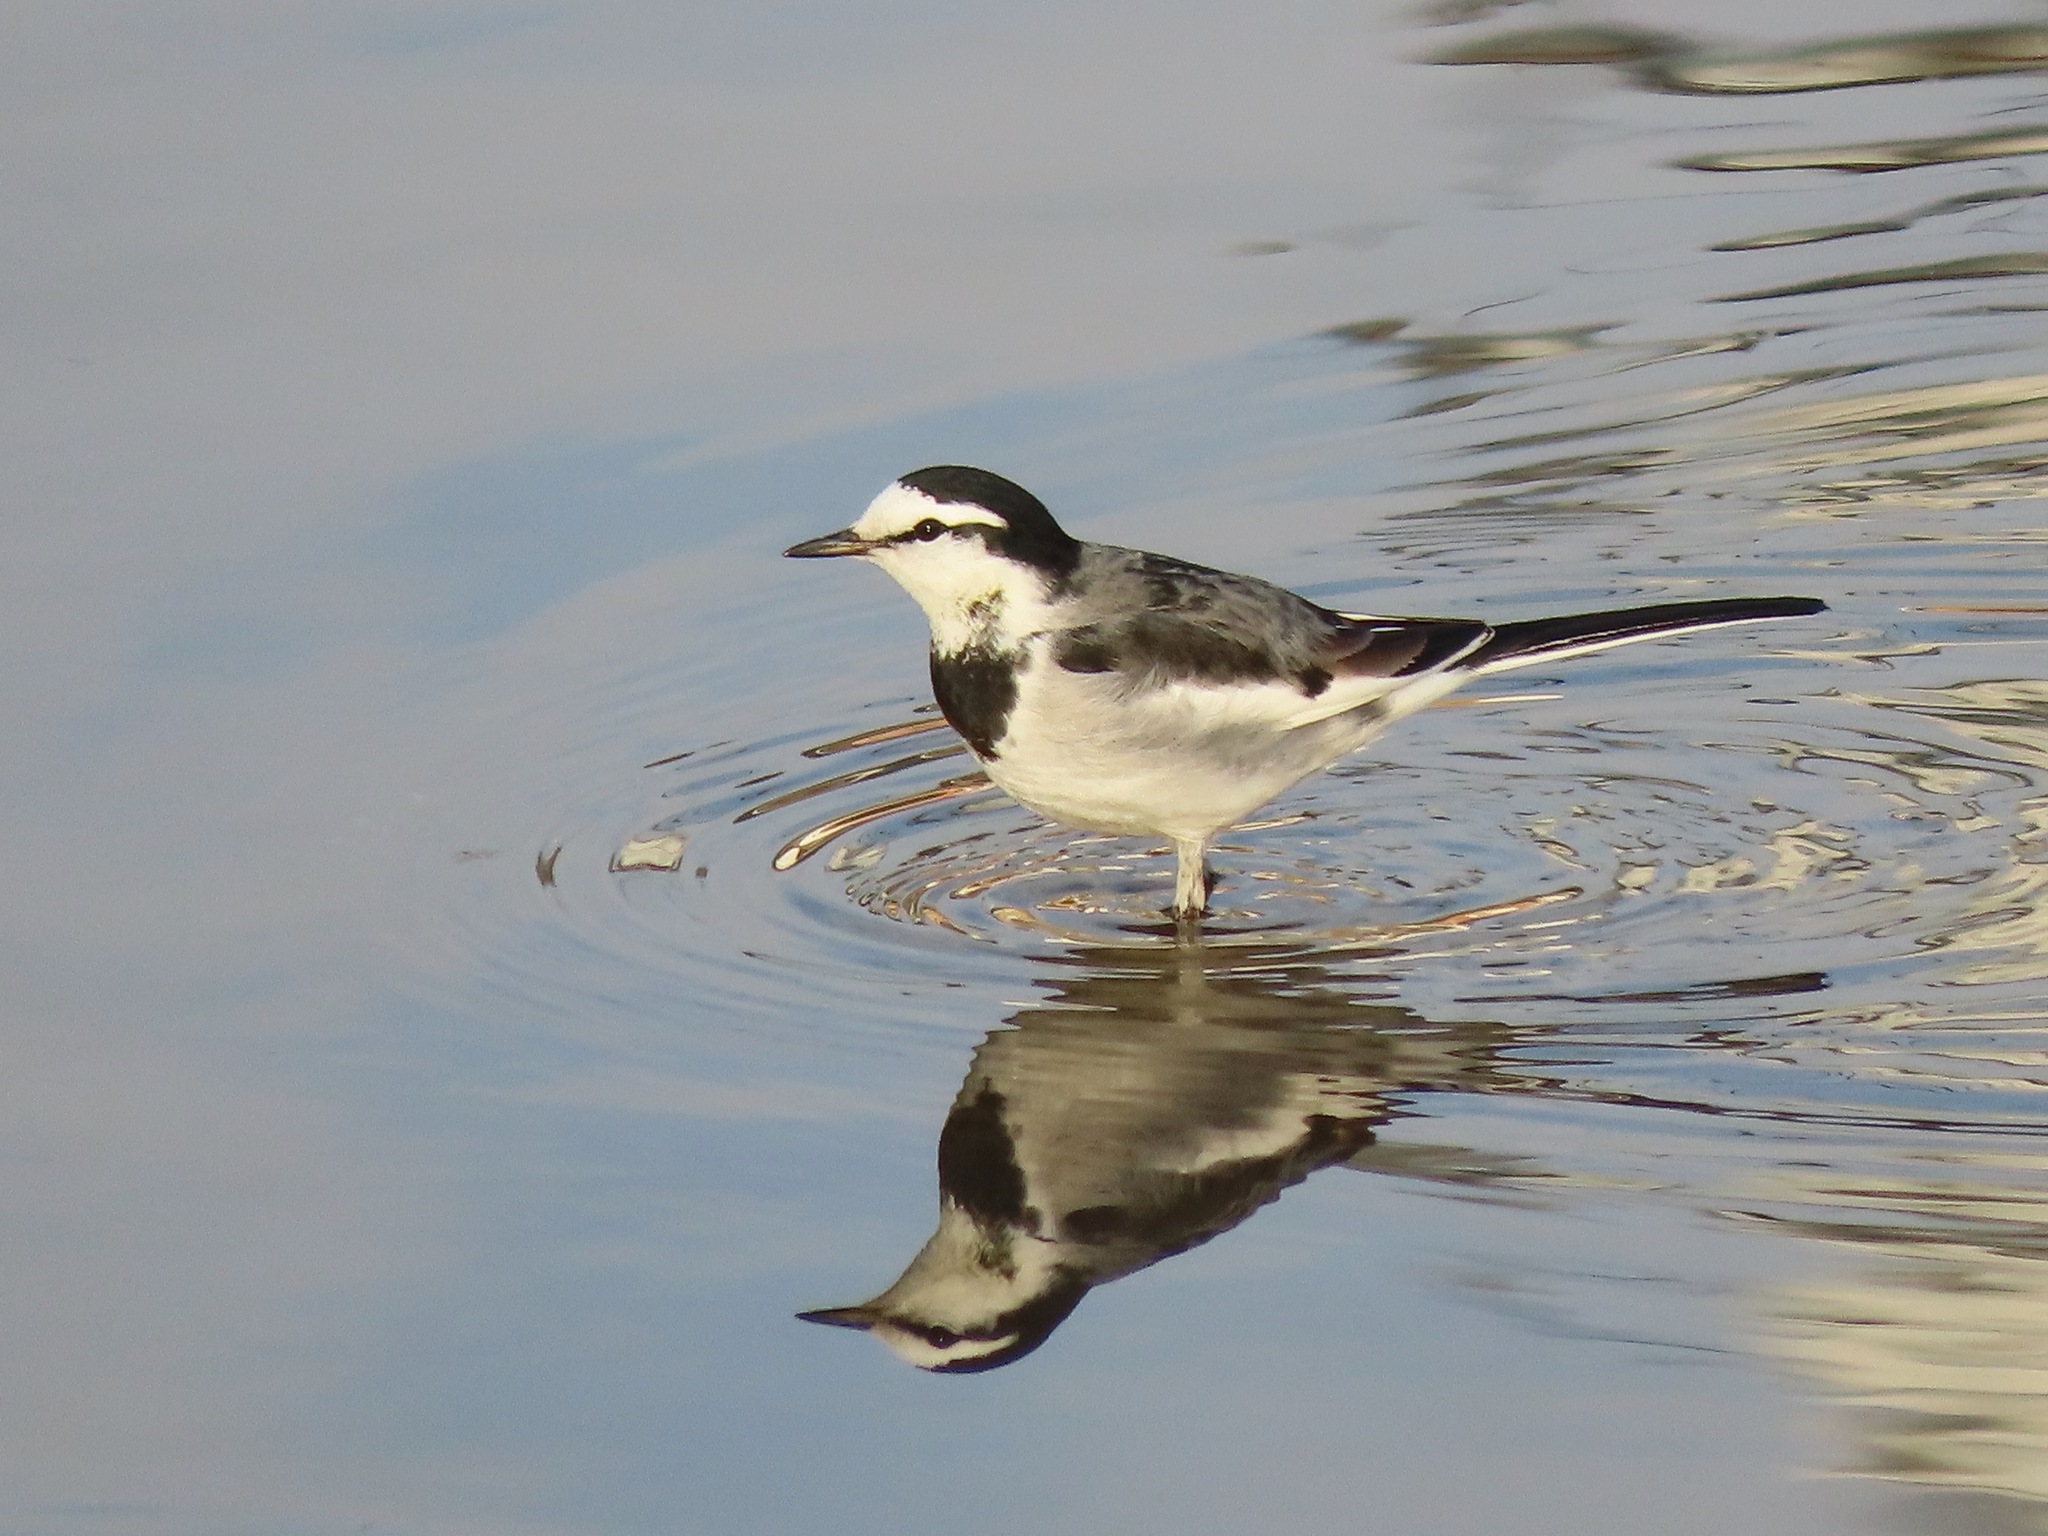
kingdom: Animalia
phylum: Chordata
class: Aves
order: Passeriformes
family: Motacillidae
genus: Motacilla
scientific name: Motacilla alba
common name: White wagtail
